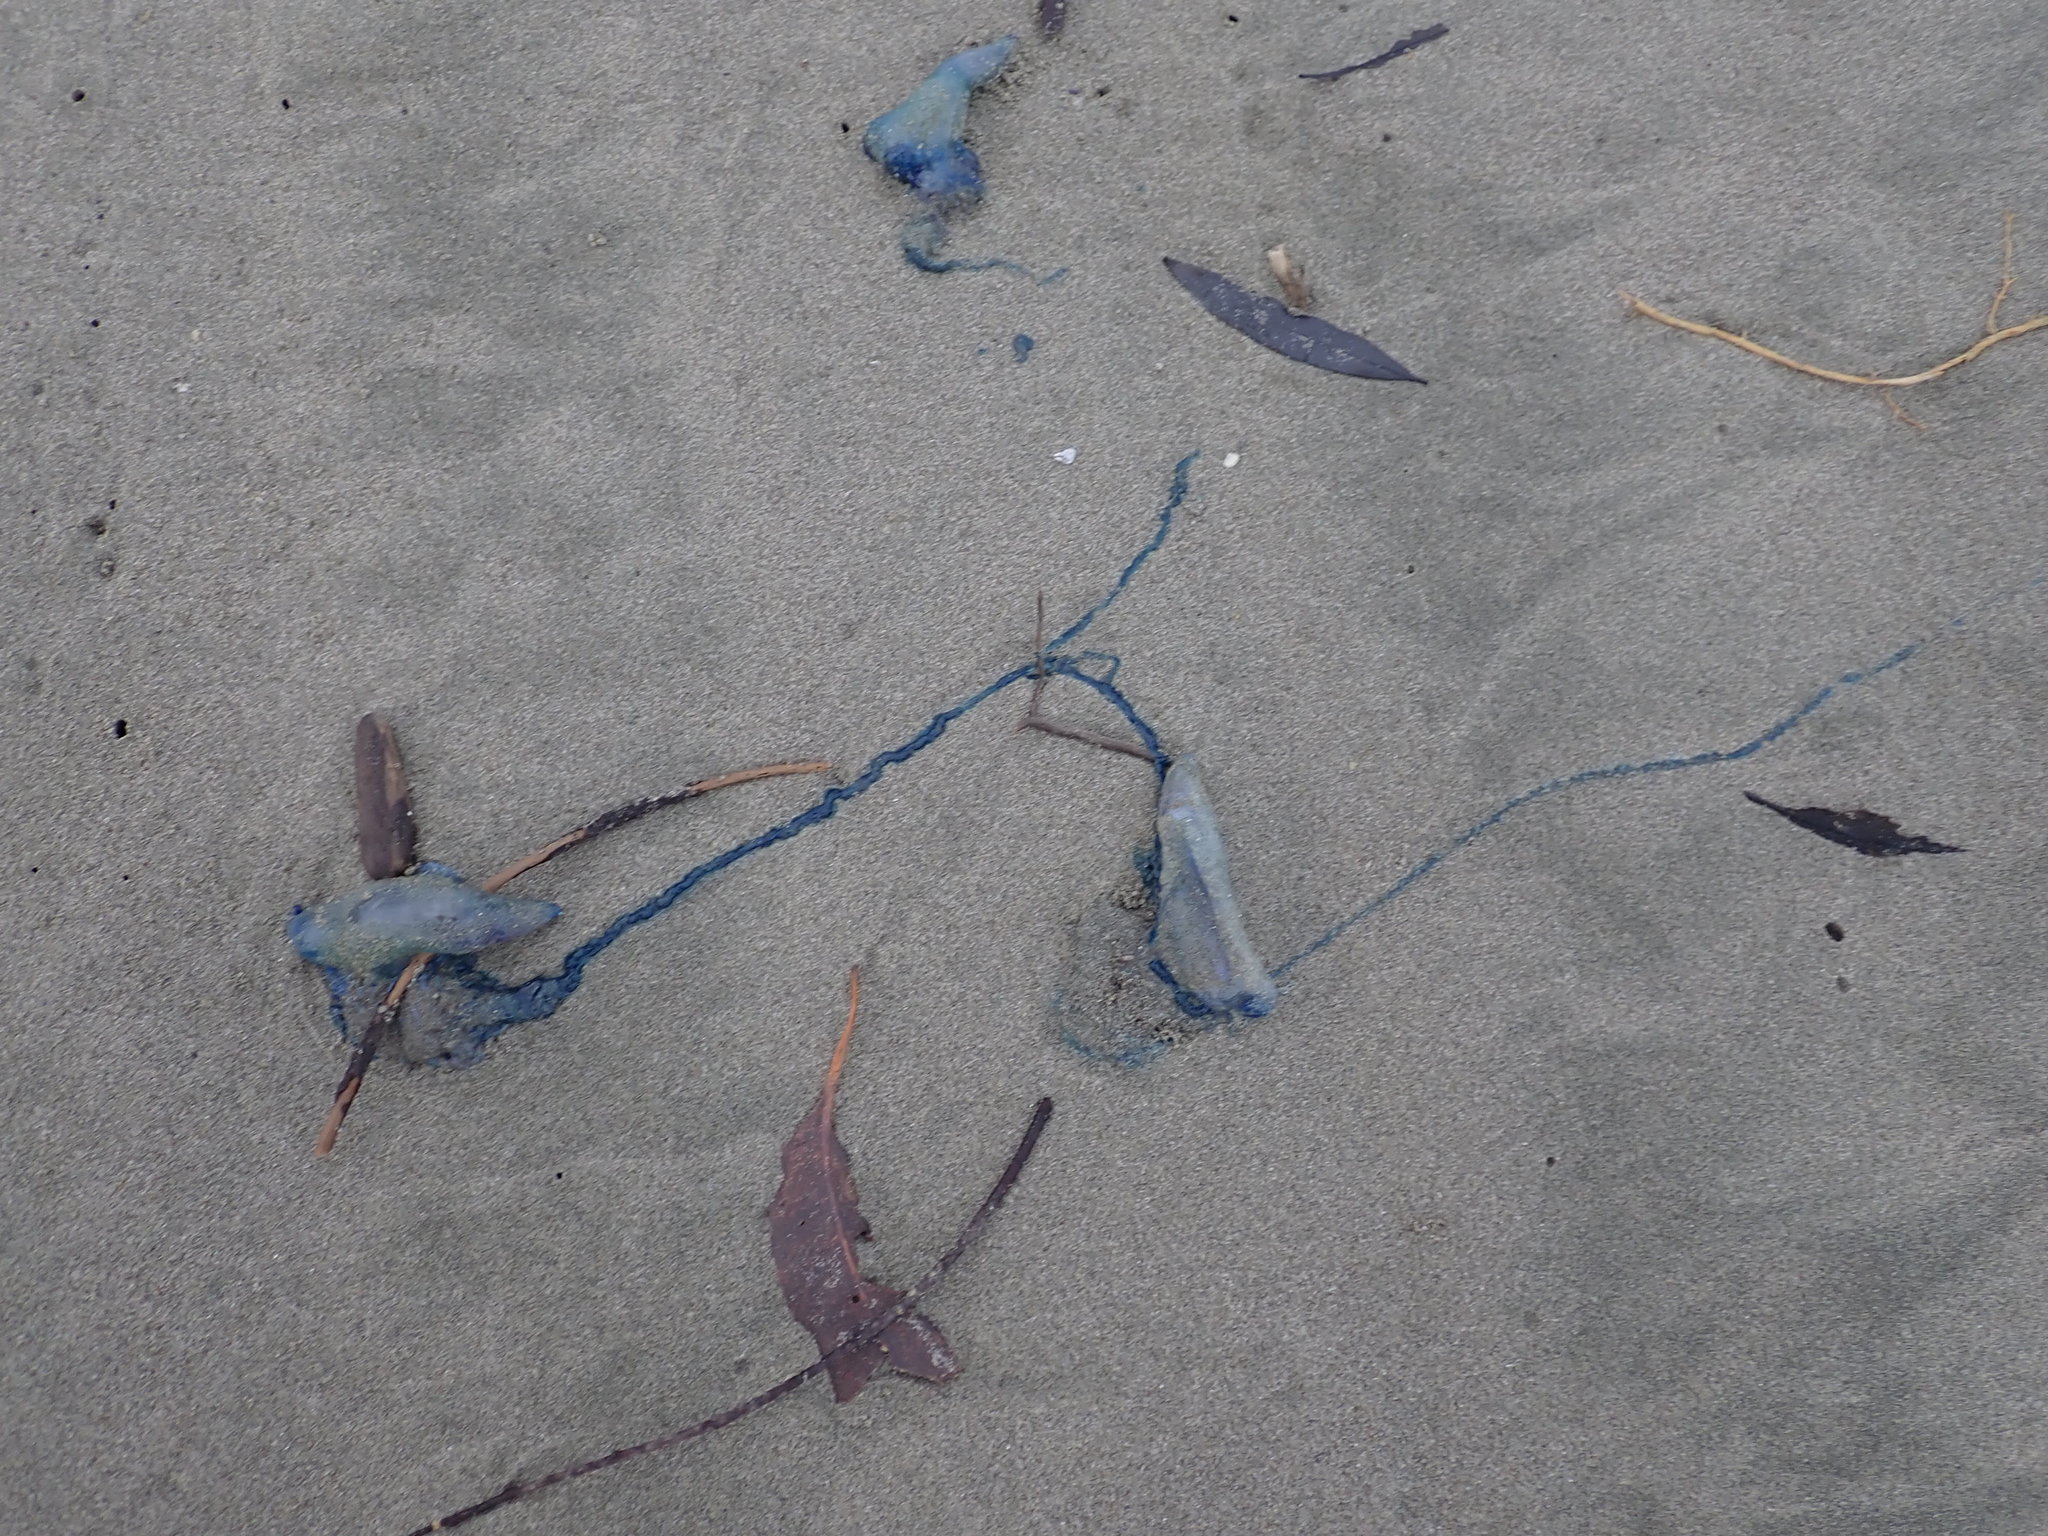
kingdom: Animalia
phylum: Cnidaria
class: Hydrozoa
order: Siphonophorae
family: Physaliidae
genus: Physalia
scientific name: Physalia physalis
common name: Portuguese man-of-war
